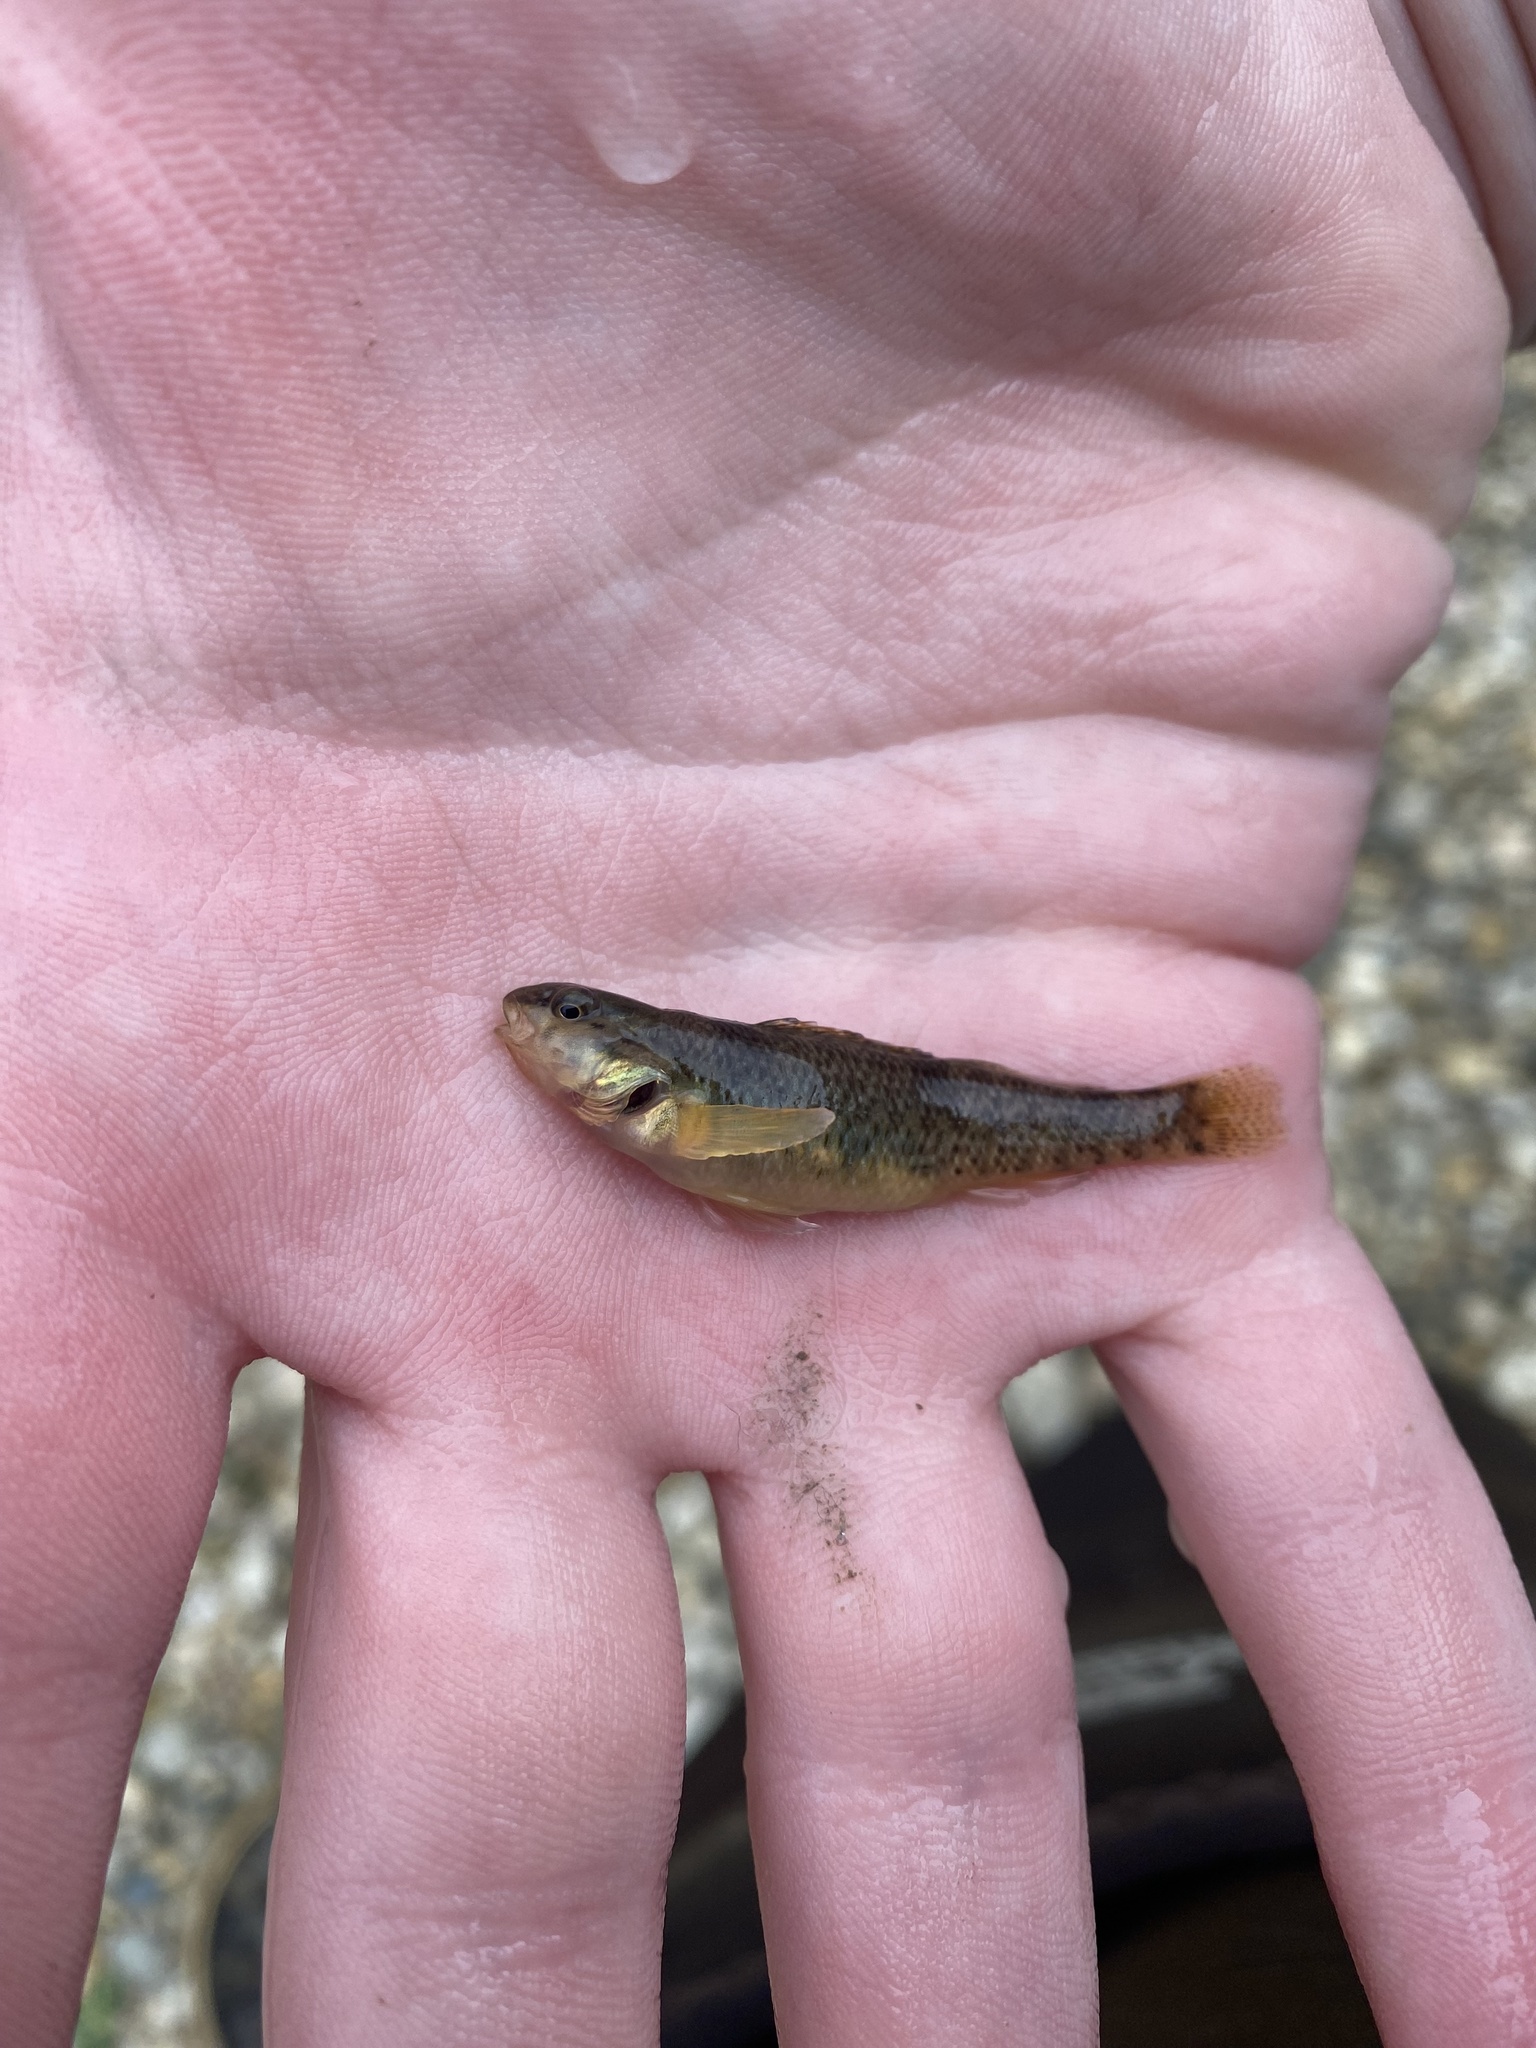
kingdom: Animalia
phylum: Chordata
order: Perciformes
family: Percidae
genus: Etheostoma
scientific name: Etheostoma caeruleum
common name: Rainbow darter
